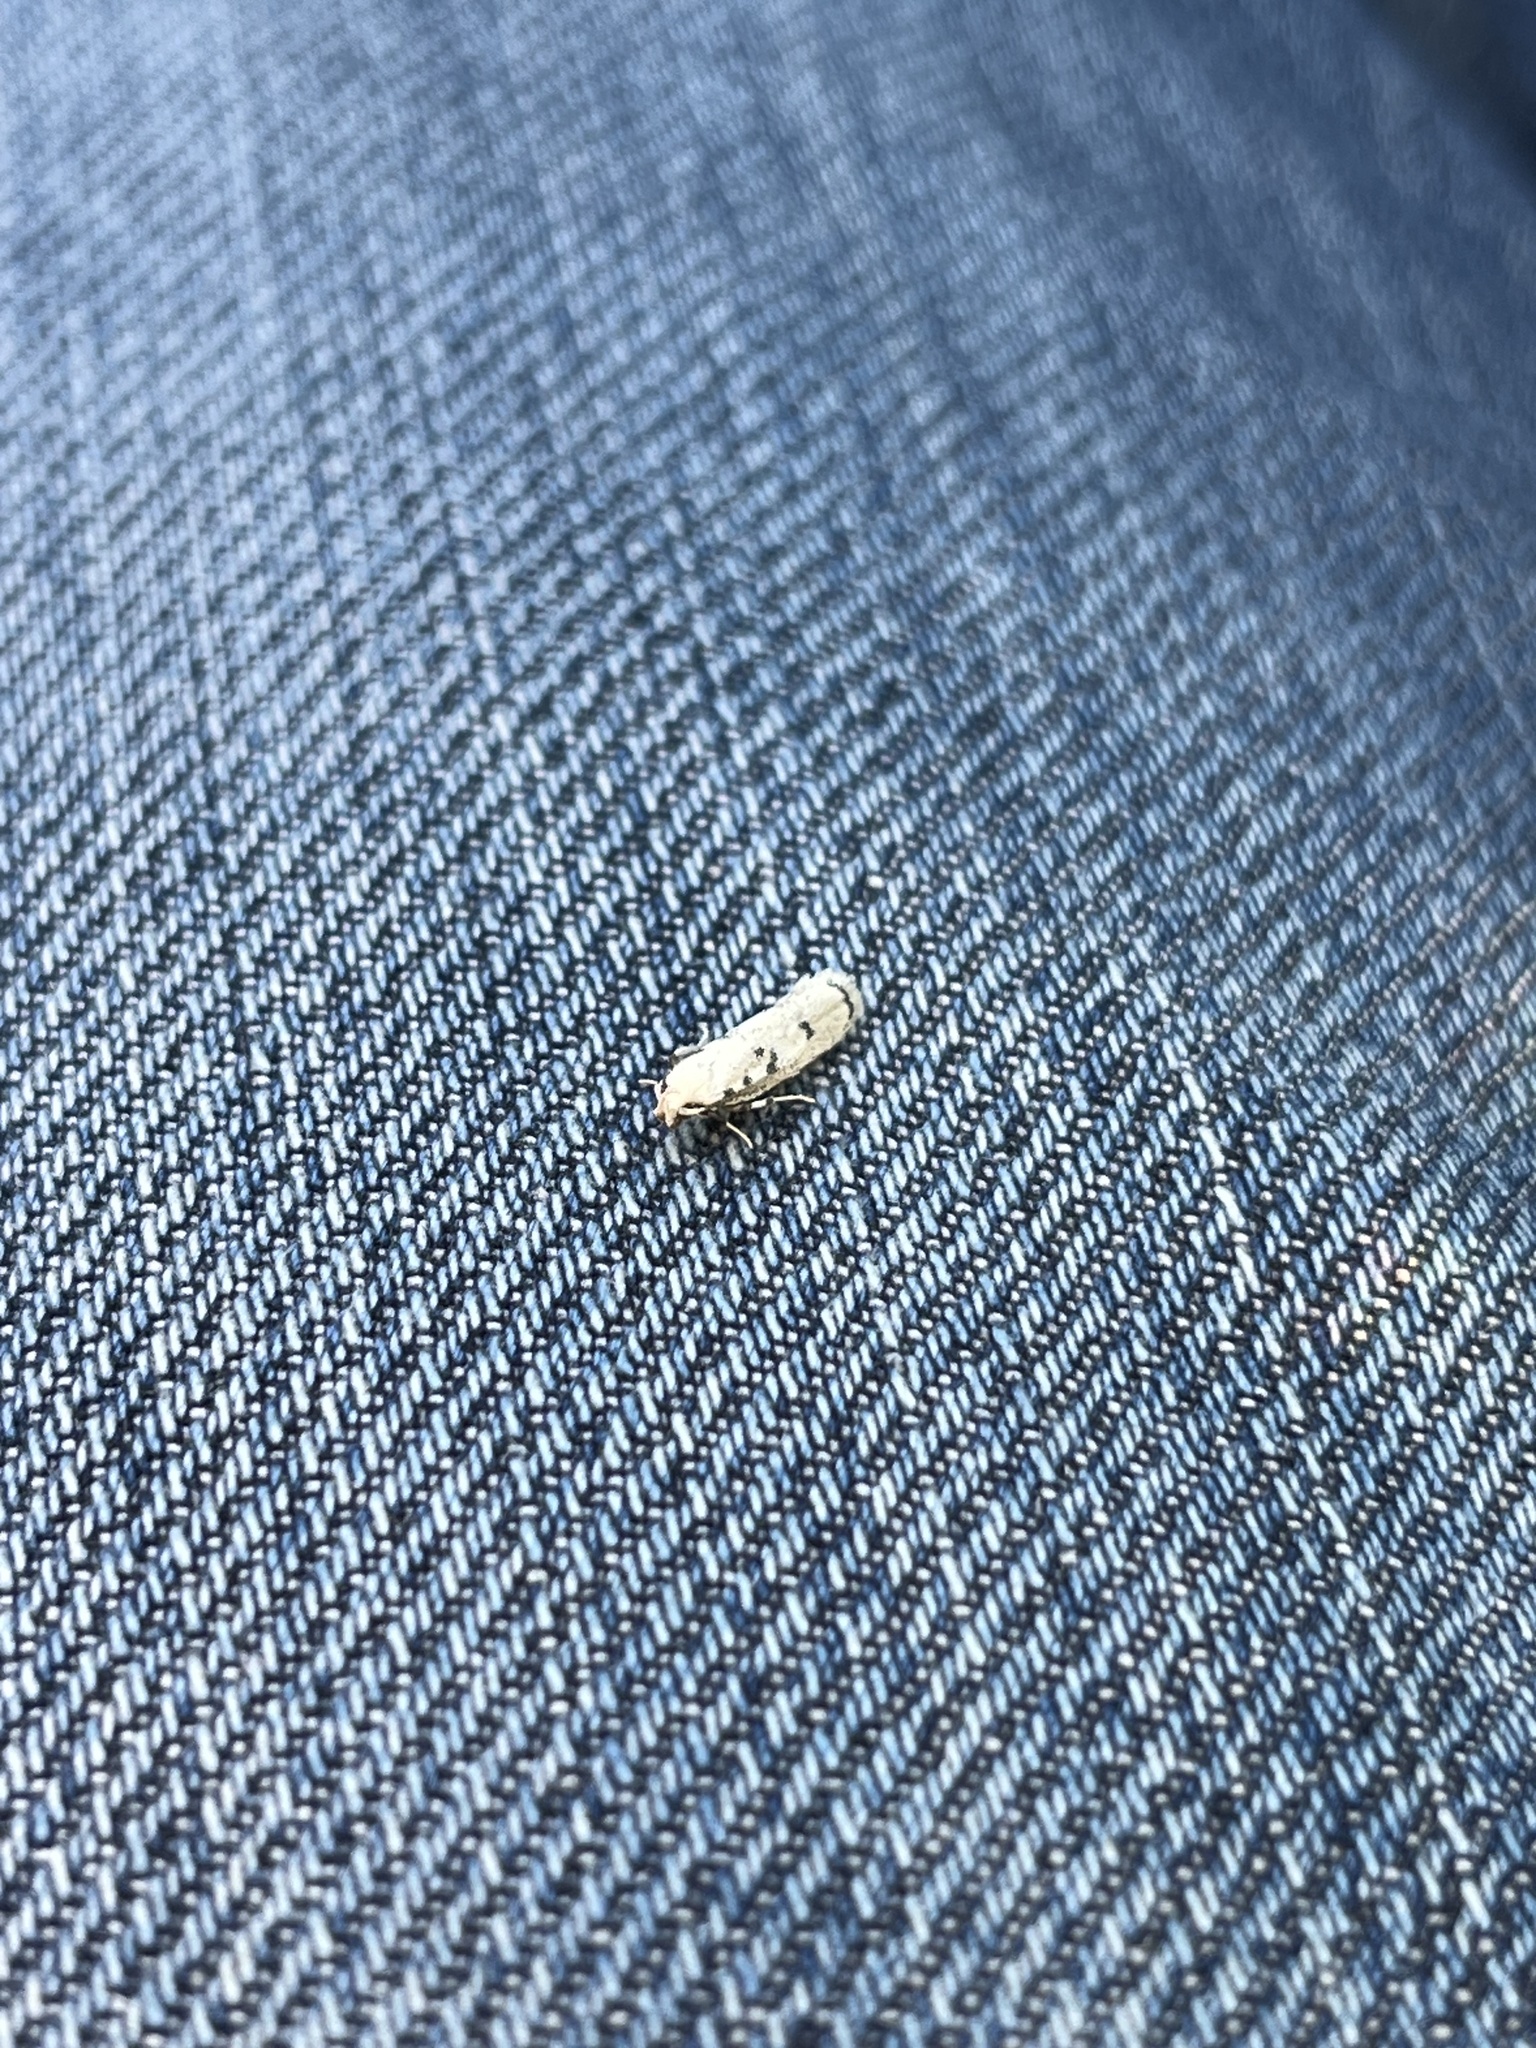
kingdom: Animalia
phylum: Arthropoda
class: Insecta
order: Lepidoptera
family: Autostichidae
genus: Glyphidocera
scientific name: Glyphidocera lactiflosella
